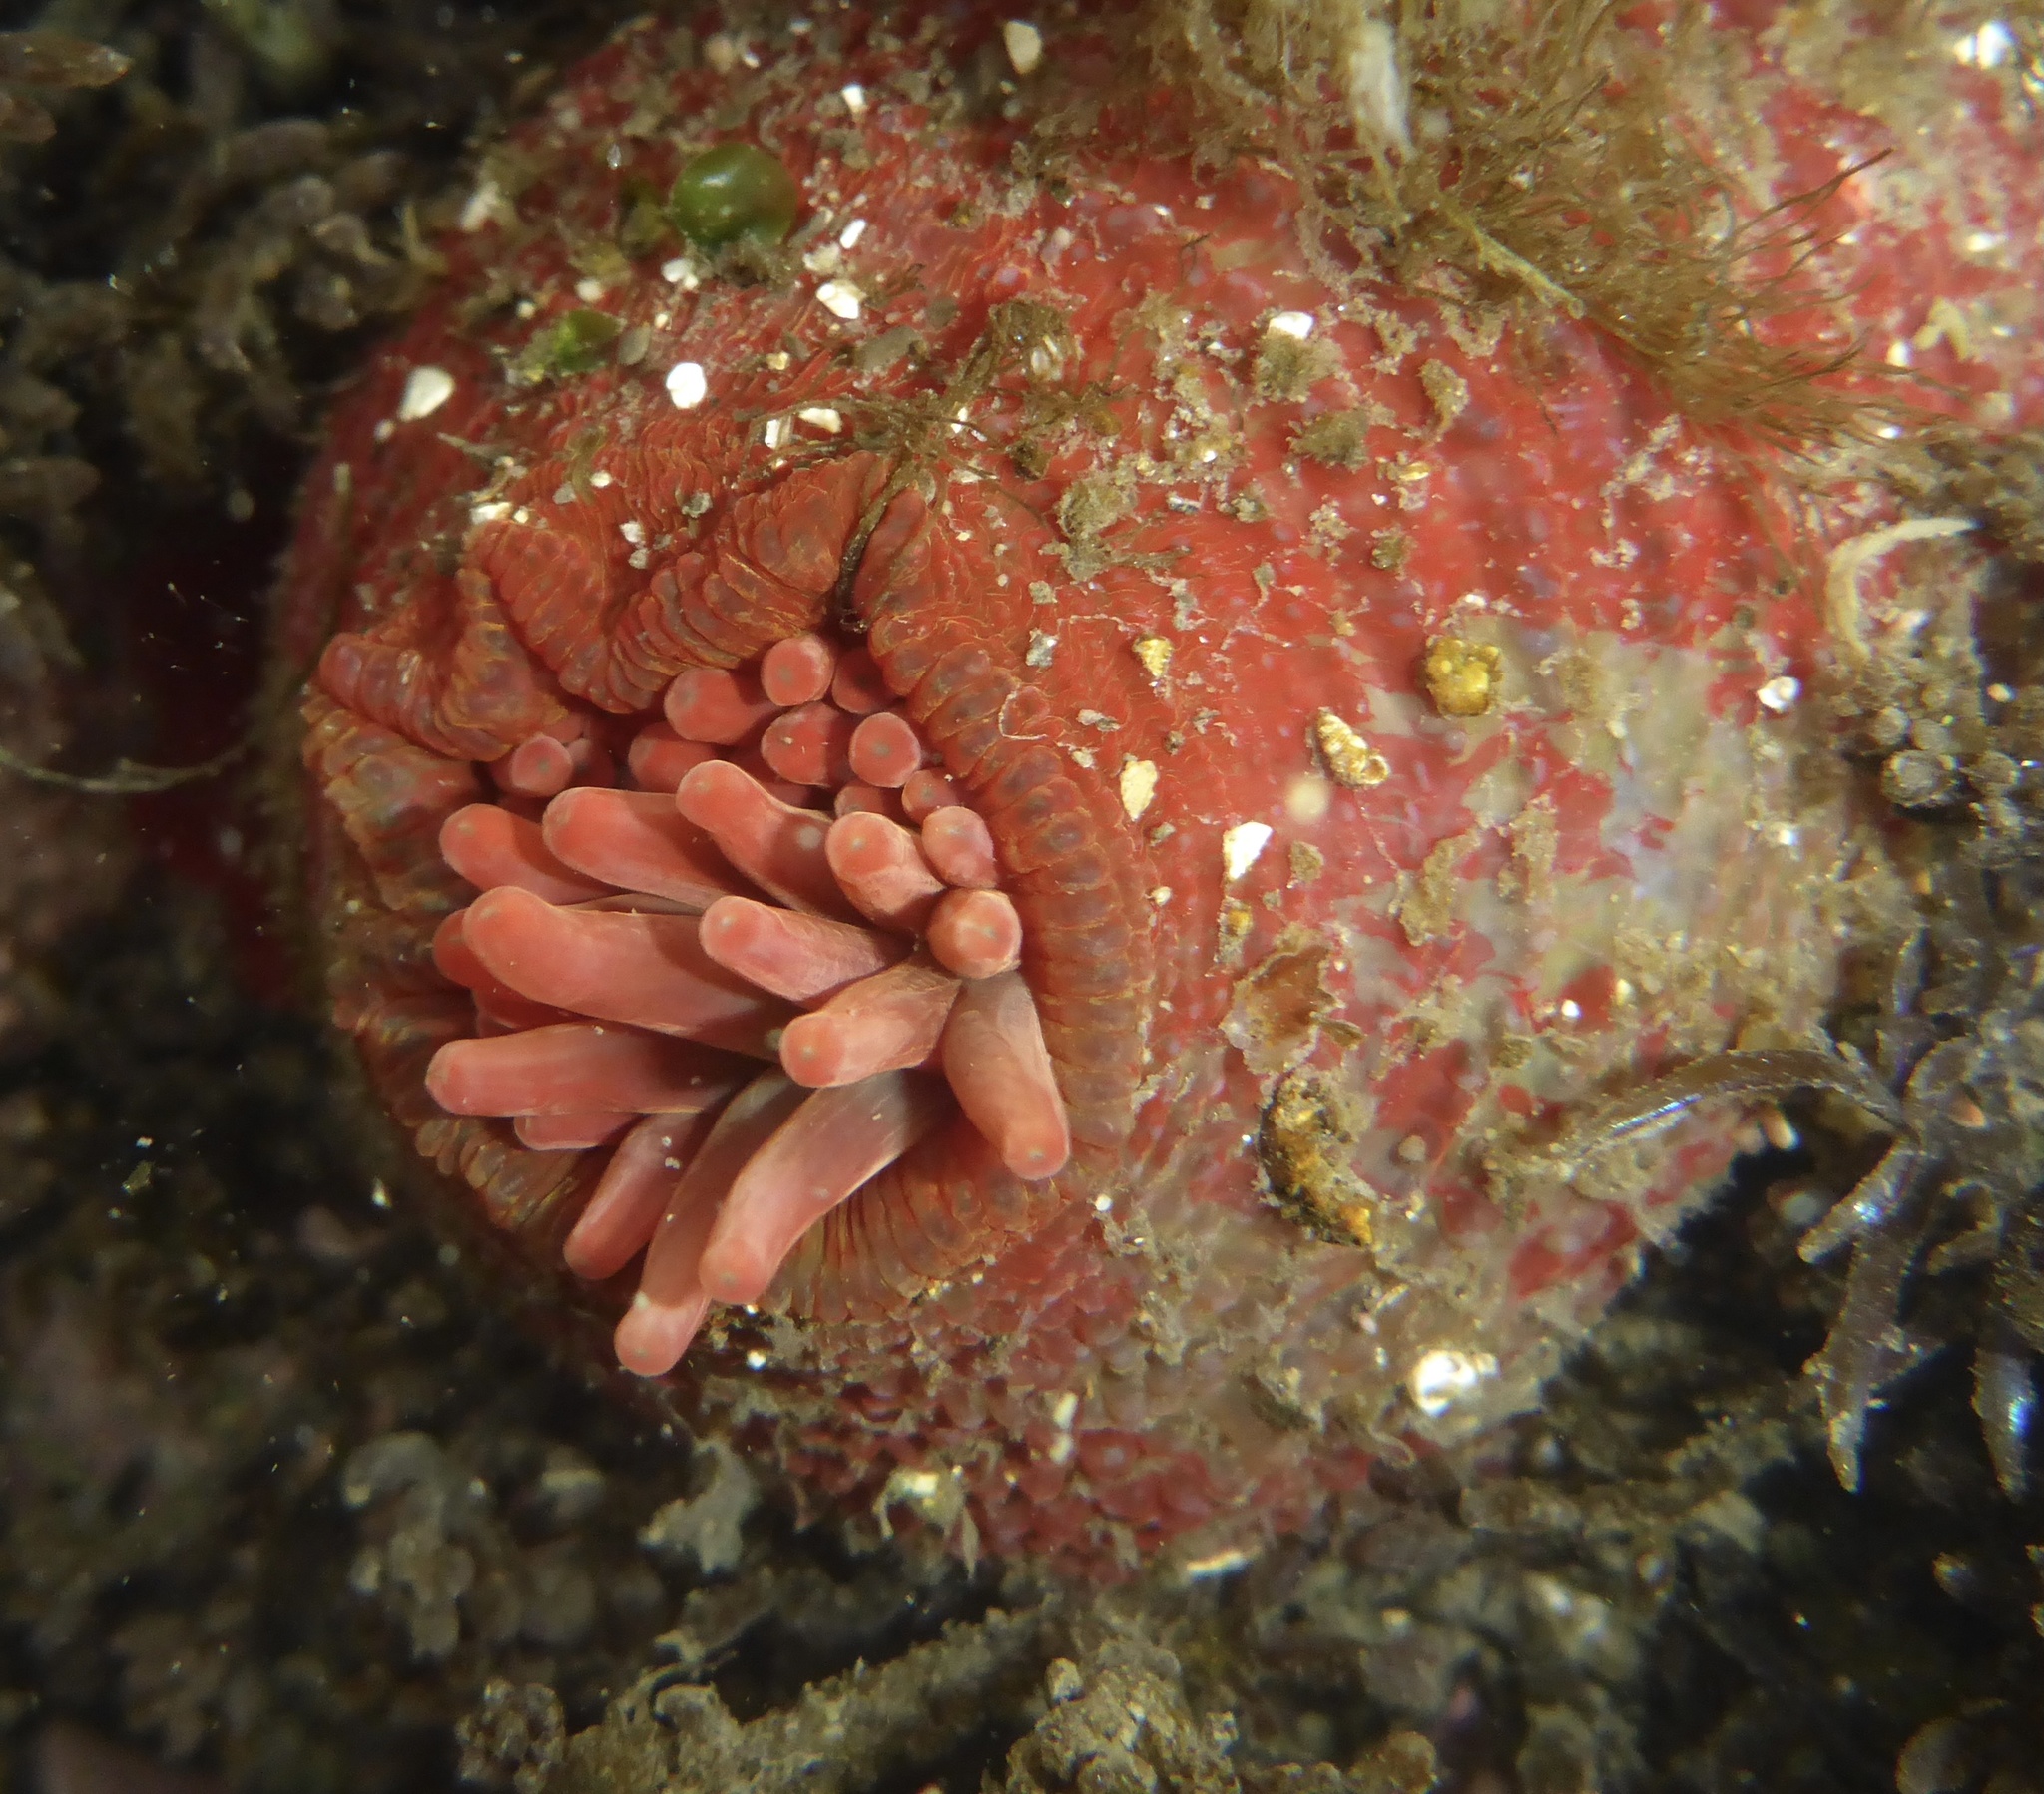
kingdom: Animalia
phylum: Cnidaria
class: Anthozoa
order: Actiniaria
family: Actiniidae
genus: Urticina
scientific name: Urticina grebelnyi
